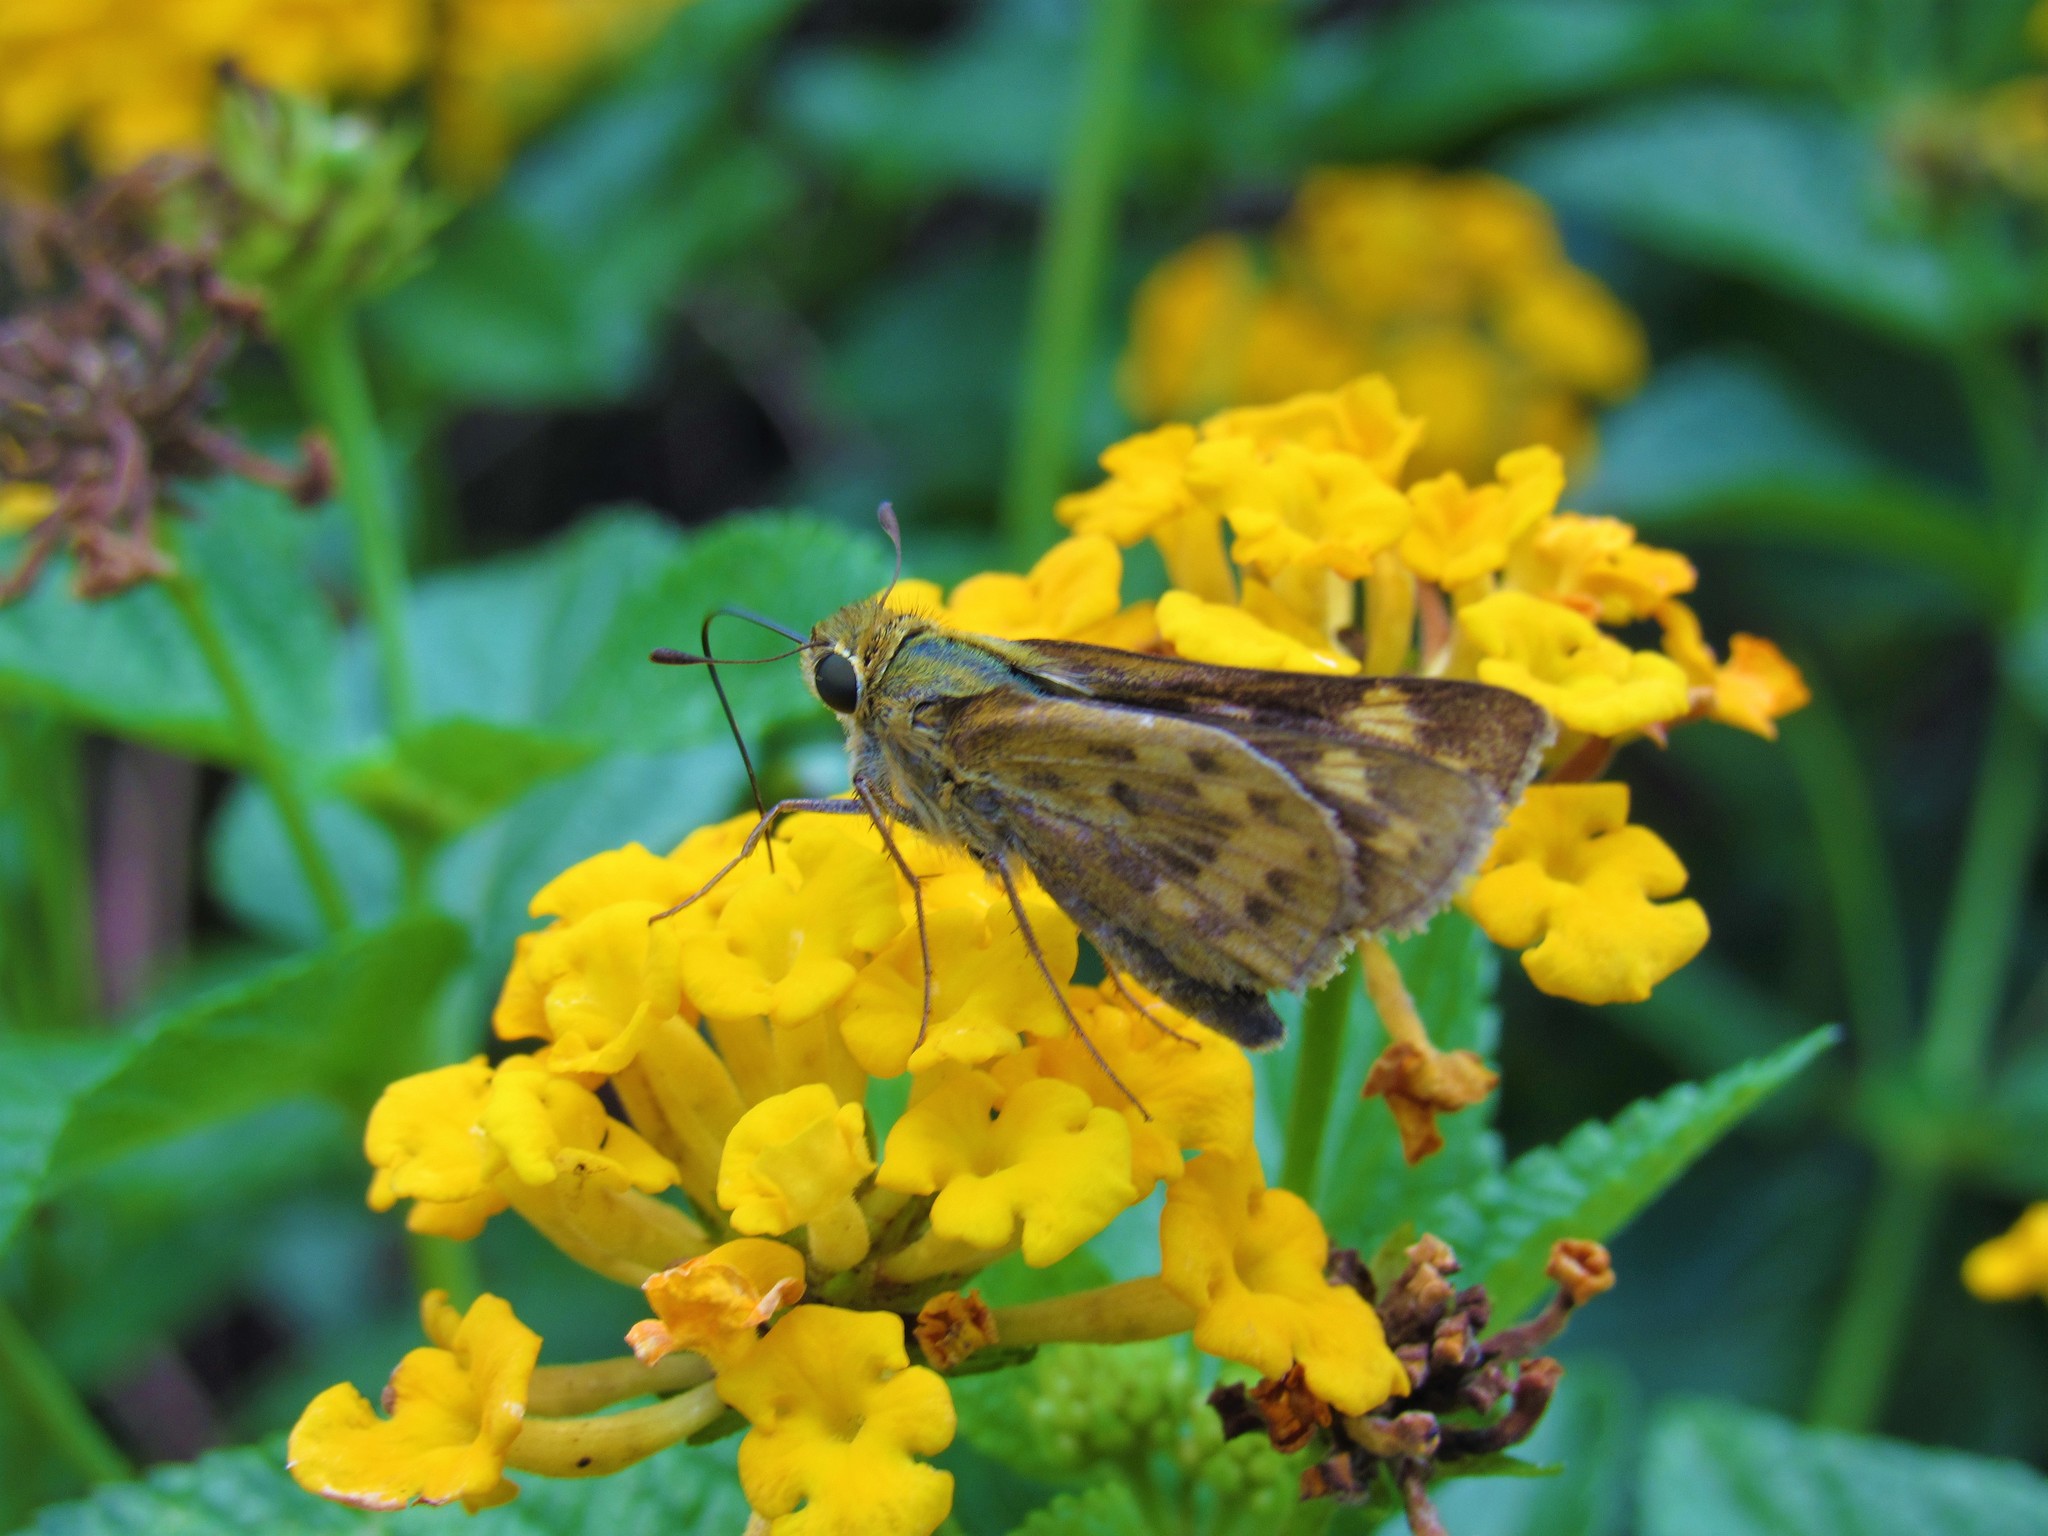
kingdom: Animalia
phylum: Arthropoda
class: Insecta
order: Lepidoptera
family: Hesperiidae
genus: Hylephila
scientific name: Hylephila phyleus
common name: Fiery skipper
